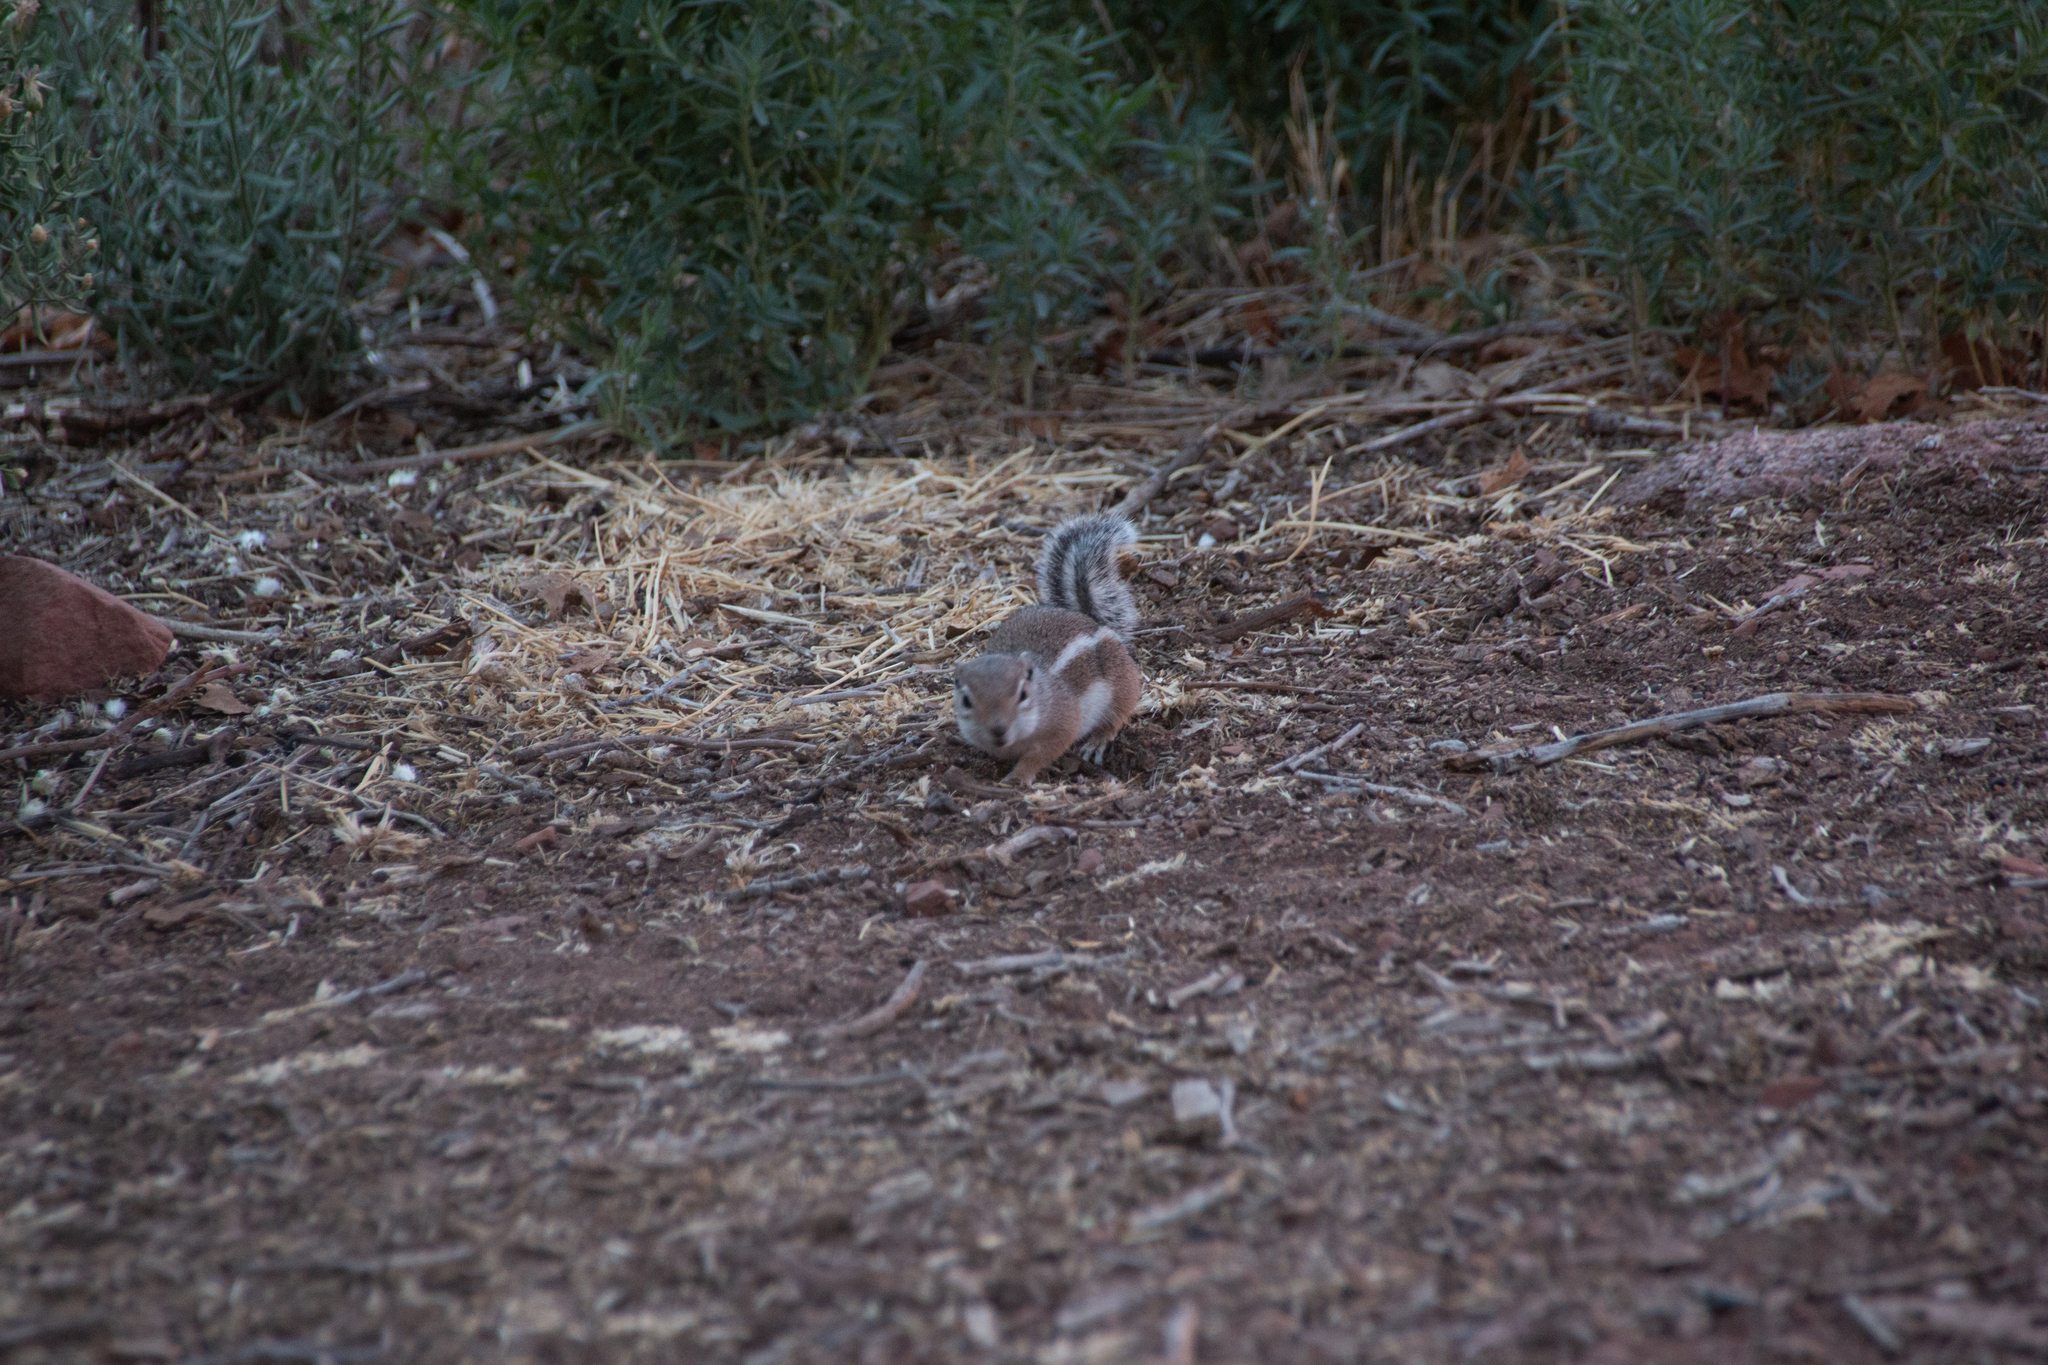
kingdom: Animalia
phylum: Chordata
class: Mammalia
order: Rodentia
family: Sciuridae
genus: Ammospermophilus
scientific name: Ammospermophilus leucurus
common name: White-tailed antelope squirrel
